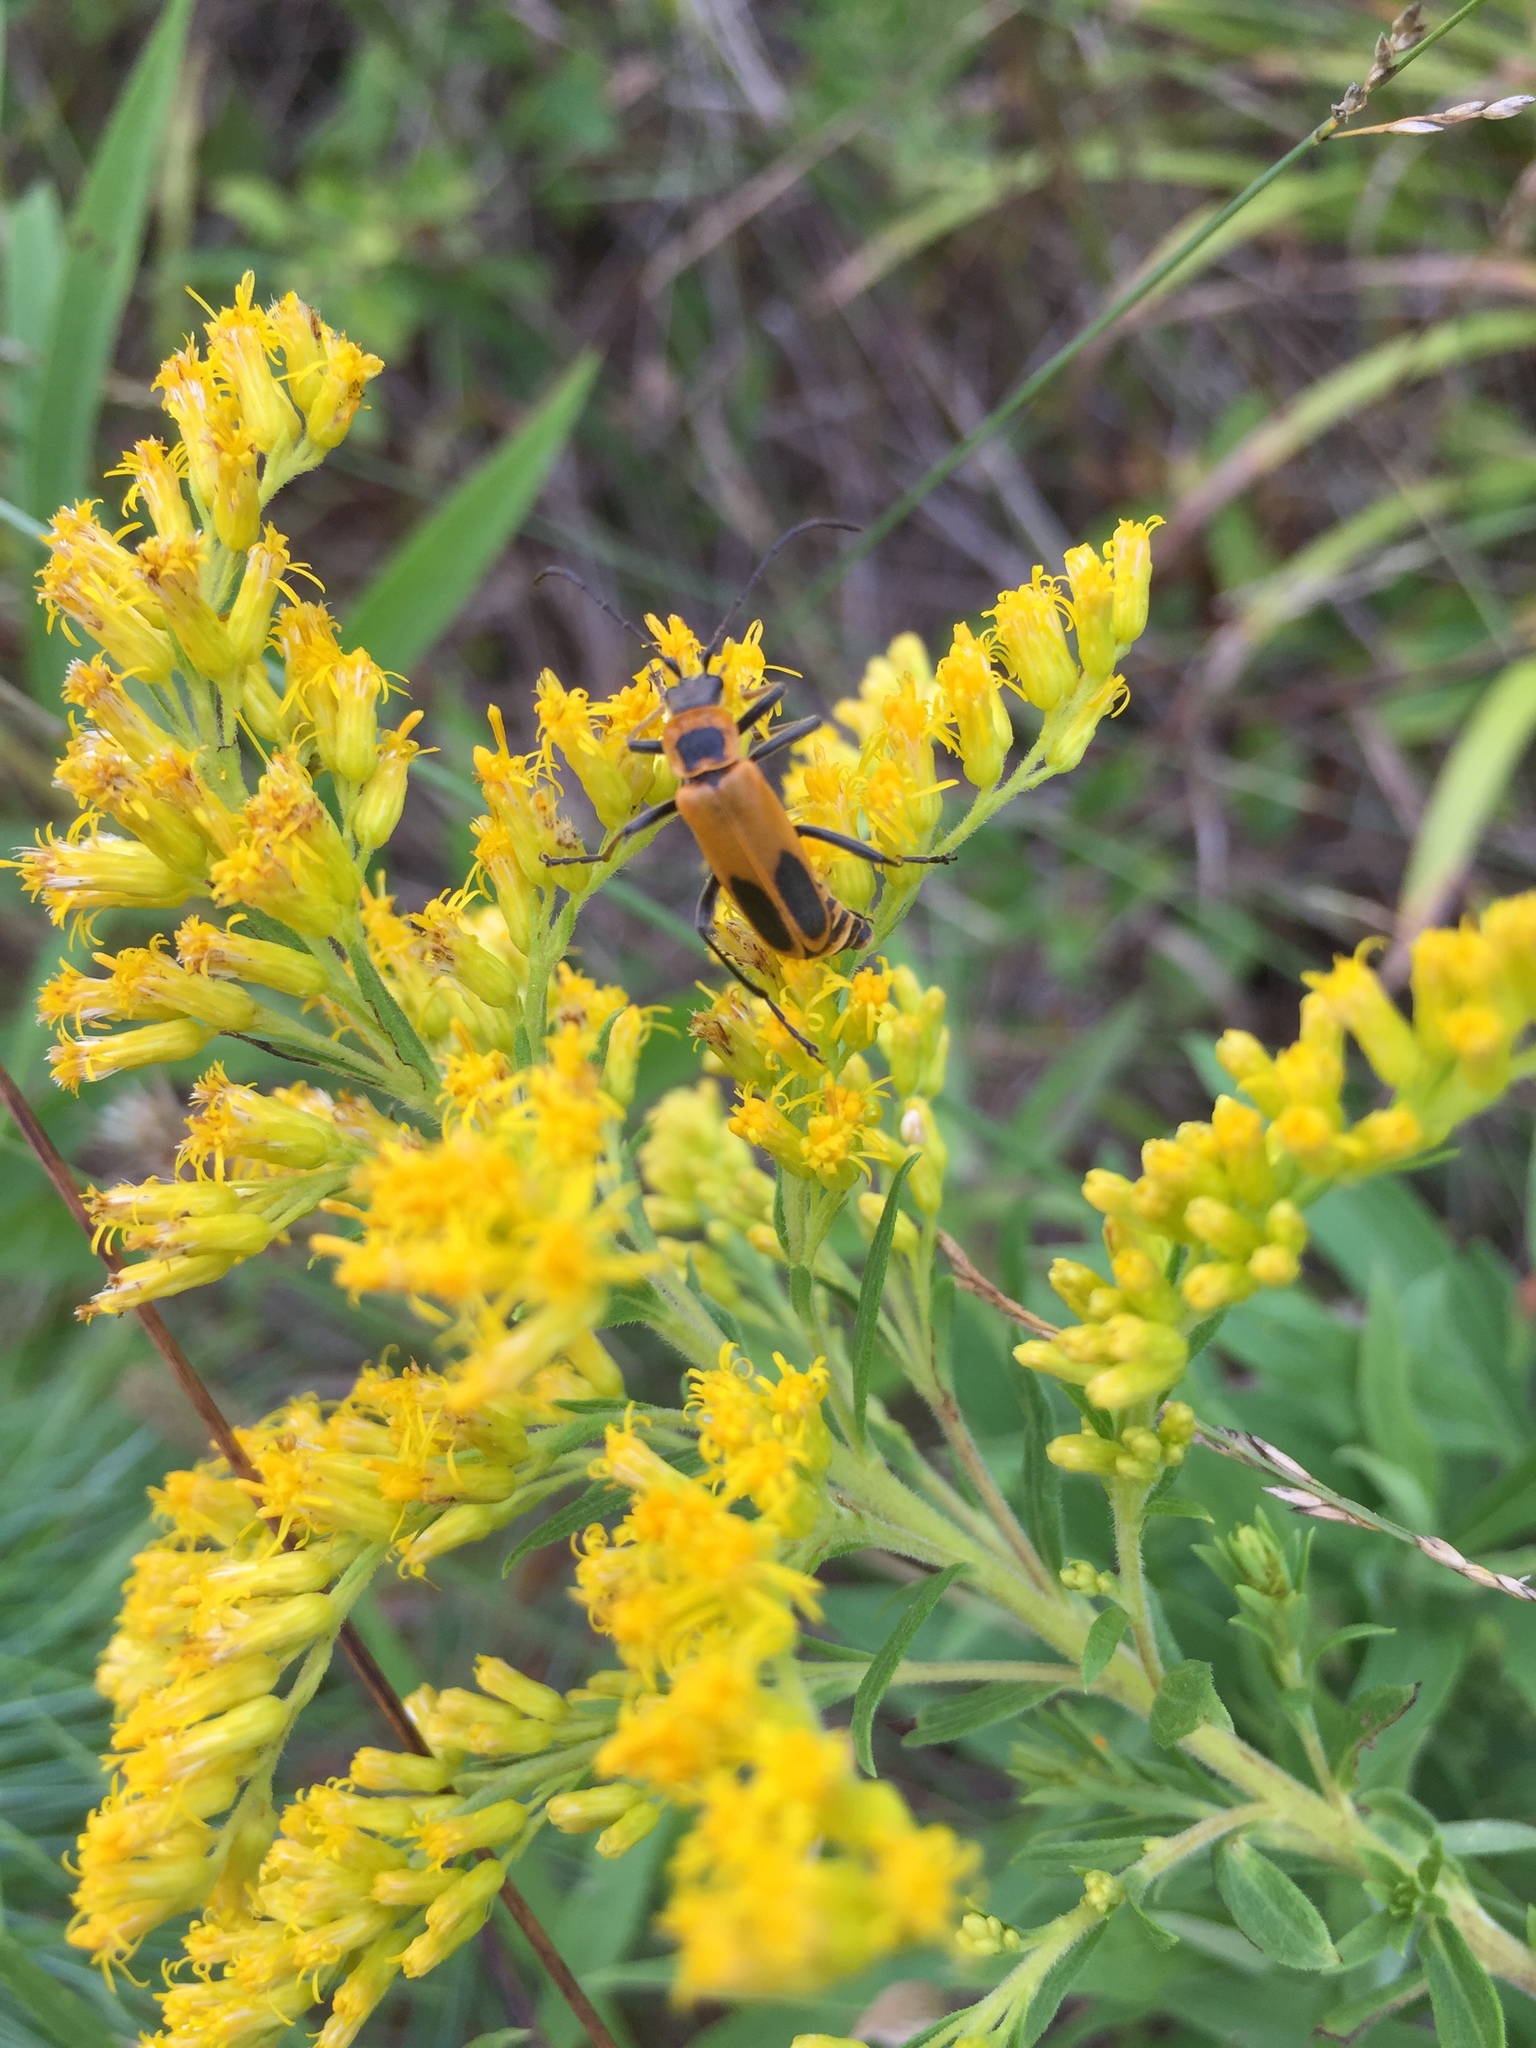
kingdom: Animalia
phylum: Arthropoda
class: Insecta
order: Coleoptera
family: Cantharidae
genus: Chauliognathus
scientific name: Chauliognathus pensylvanicus
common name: Goldenrod soldier beetle
